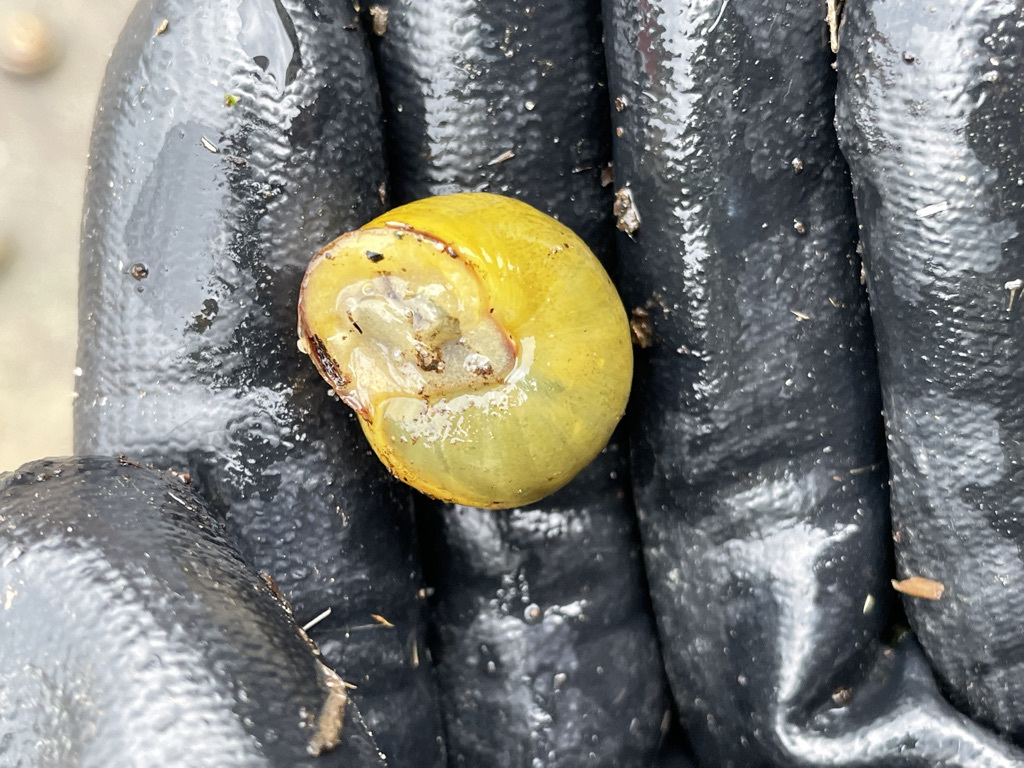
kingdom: Animalia
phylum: Mollusca
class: Gastropoda
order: Stylommatophora
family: Helicidae
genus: Cepaea
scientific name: Cepaea nemoralis
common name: Grovesnail
